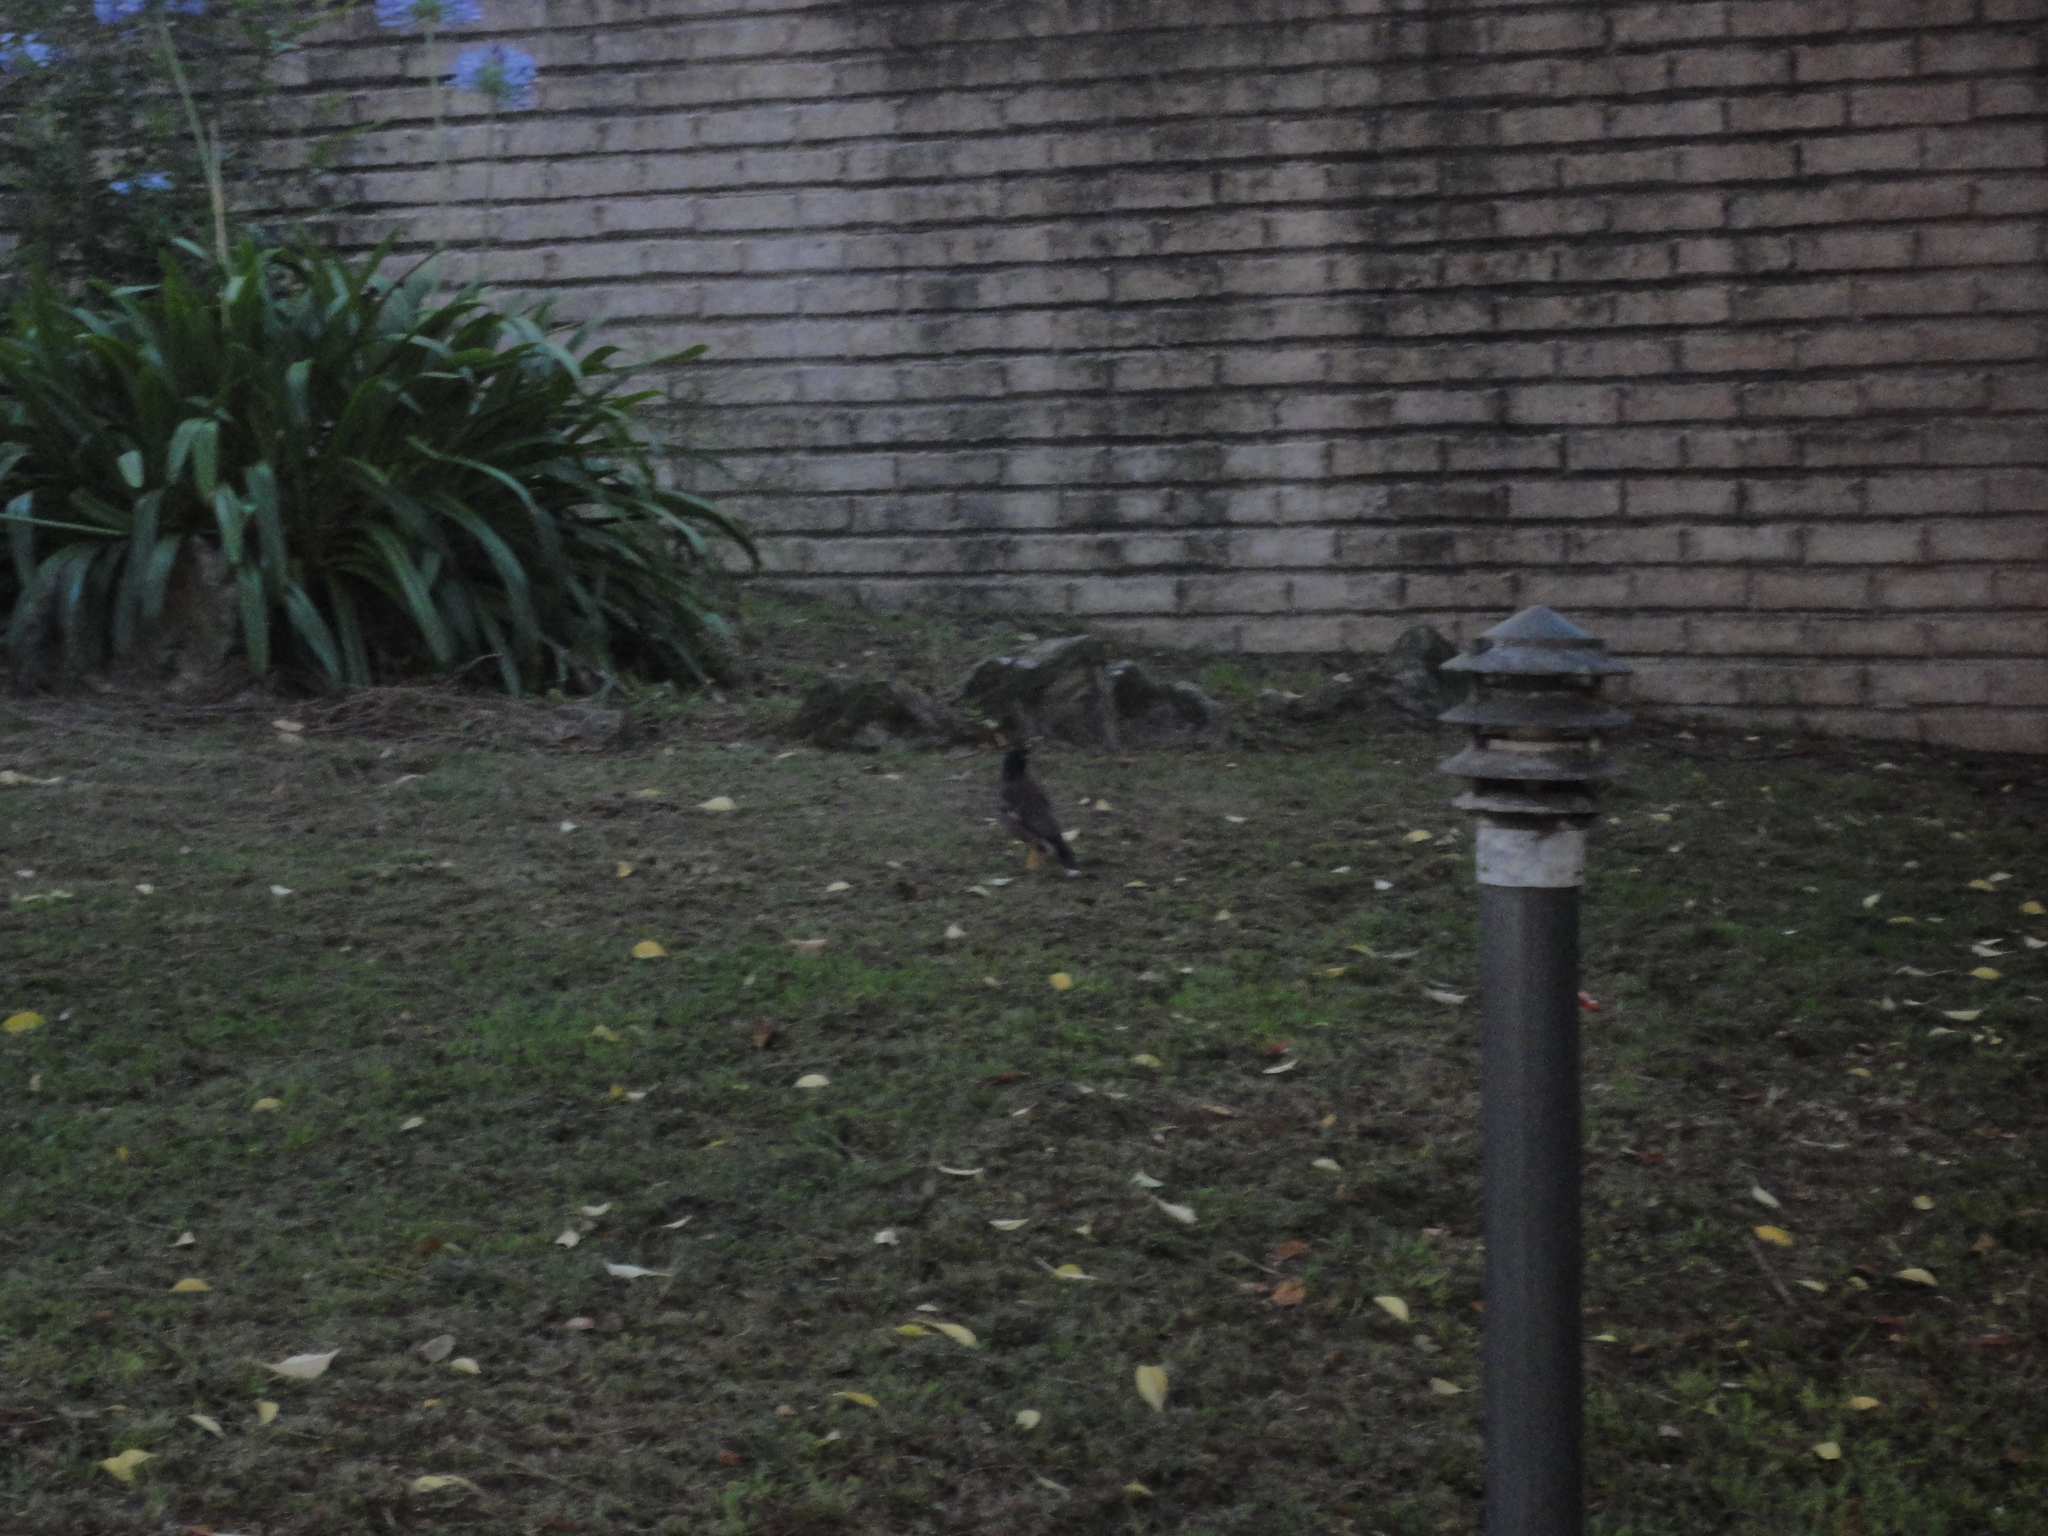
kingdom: Animalia
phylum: Chordata
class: Aves
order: Passeriformes
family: Sturnidae
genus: Acridotheres
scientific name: Acridotheres tristis
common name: Common myna
